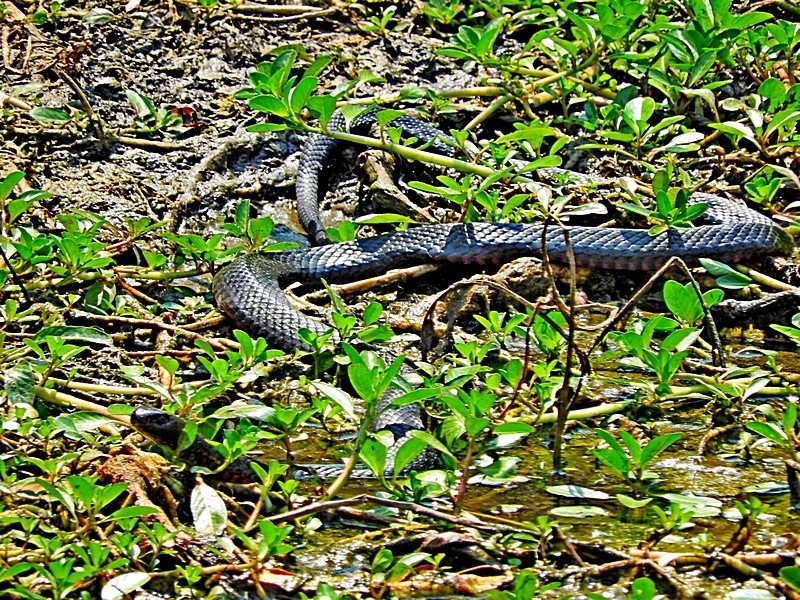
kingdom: Animalia
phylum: Chordata
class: Squamata
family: Elapidae
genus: Pseudechis
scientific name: Pseudechis porphyriacus
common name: Australian black snake
